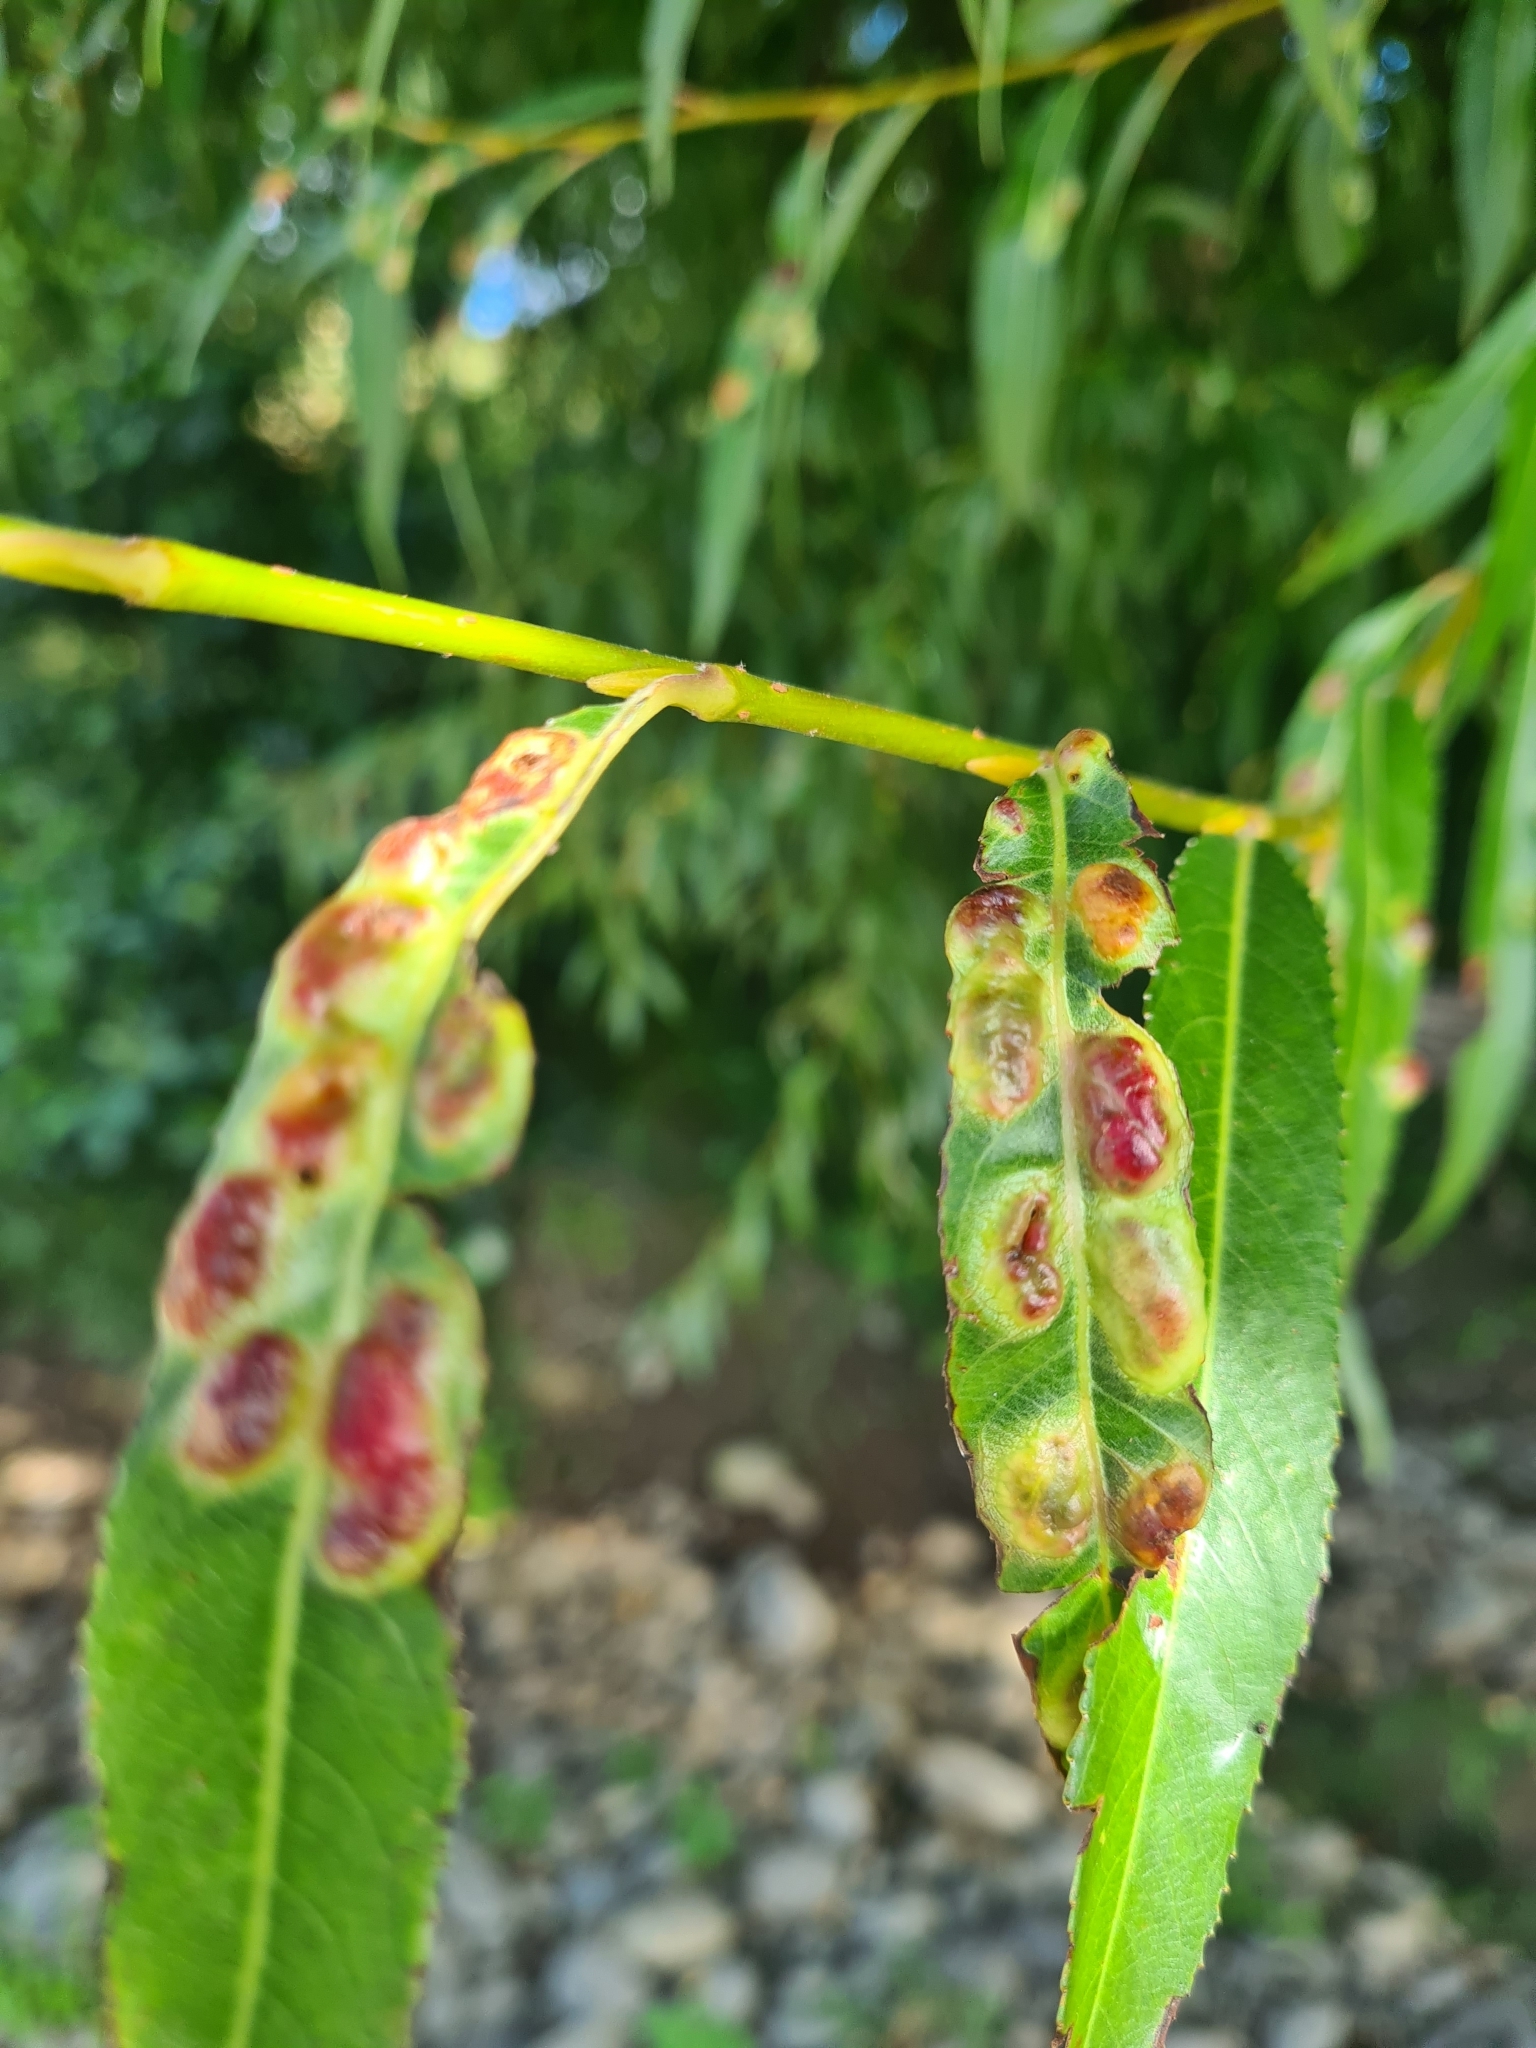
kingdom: Animalia
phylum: Arthropoda
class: Insecta
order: Hymenoptera
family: Tenthredinidae
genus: Pontania
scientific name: Pontania proxima
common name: Common sawfly
